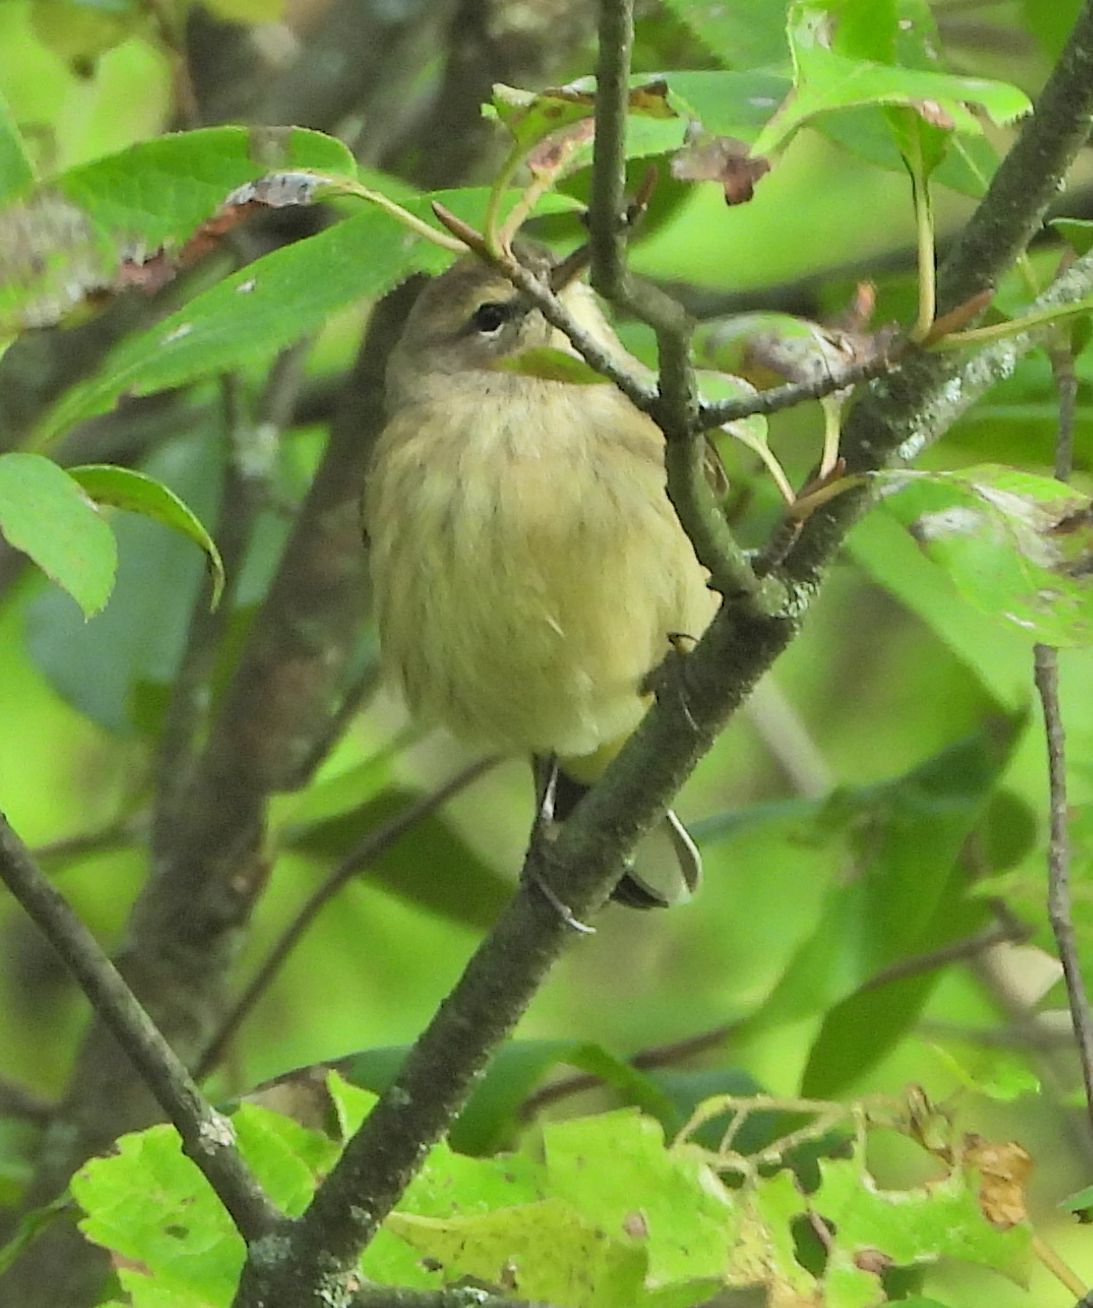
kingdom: Animalia
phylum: Chordata
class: Aves
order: Passeriformes
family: Parulidae
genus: Setophaga
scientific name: Setophaga palmarum
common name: Palm warbler
